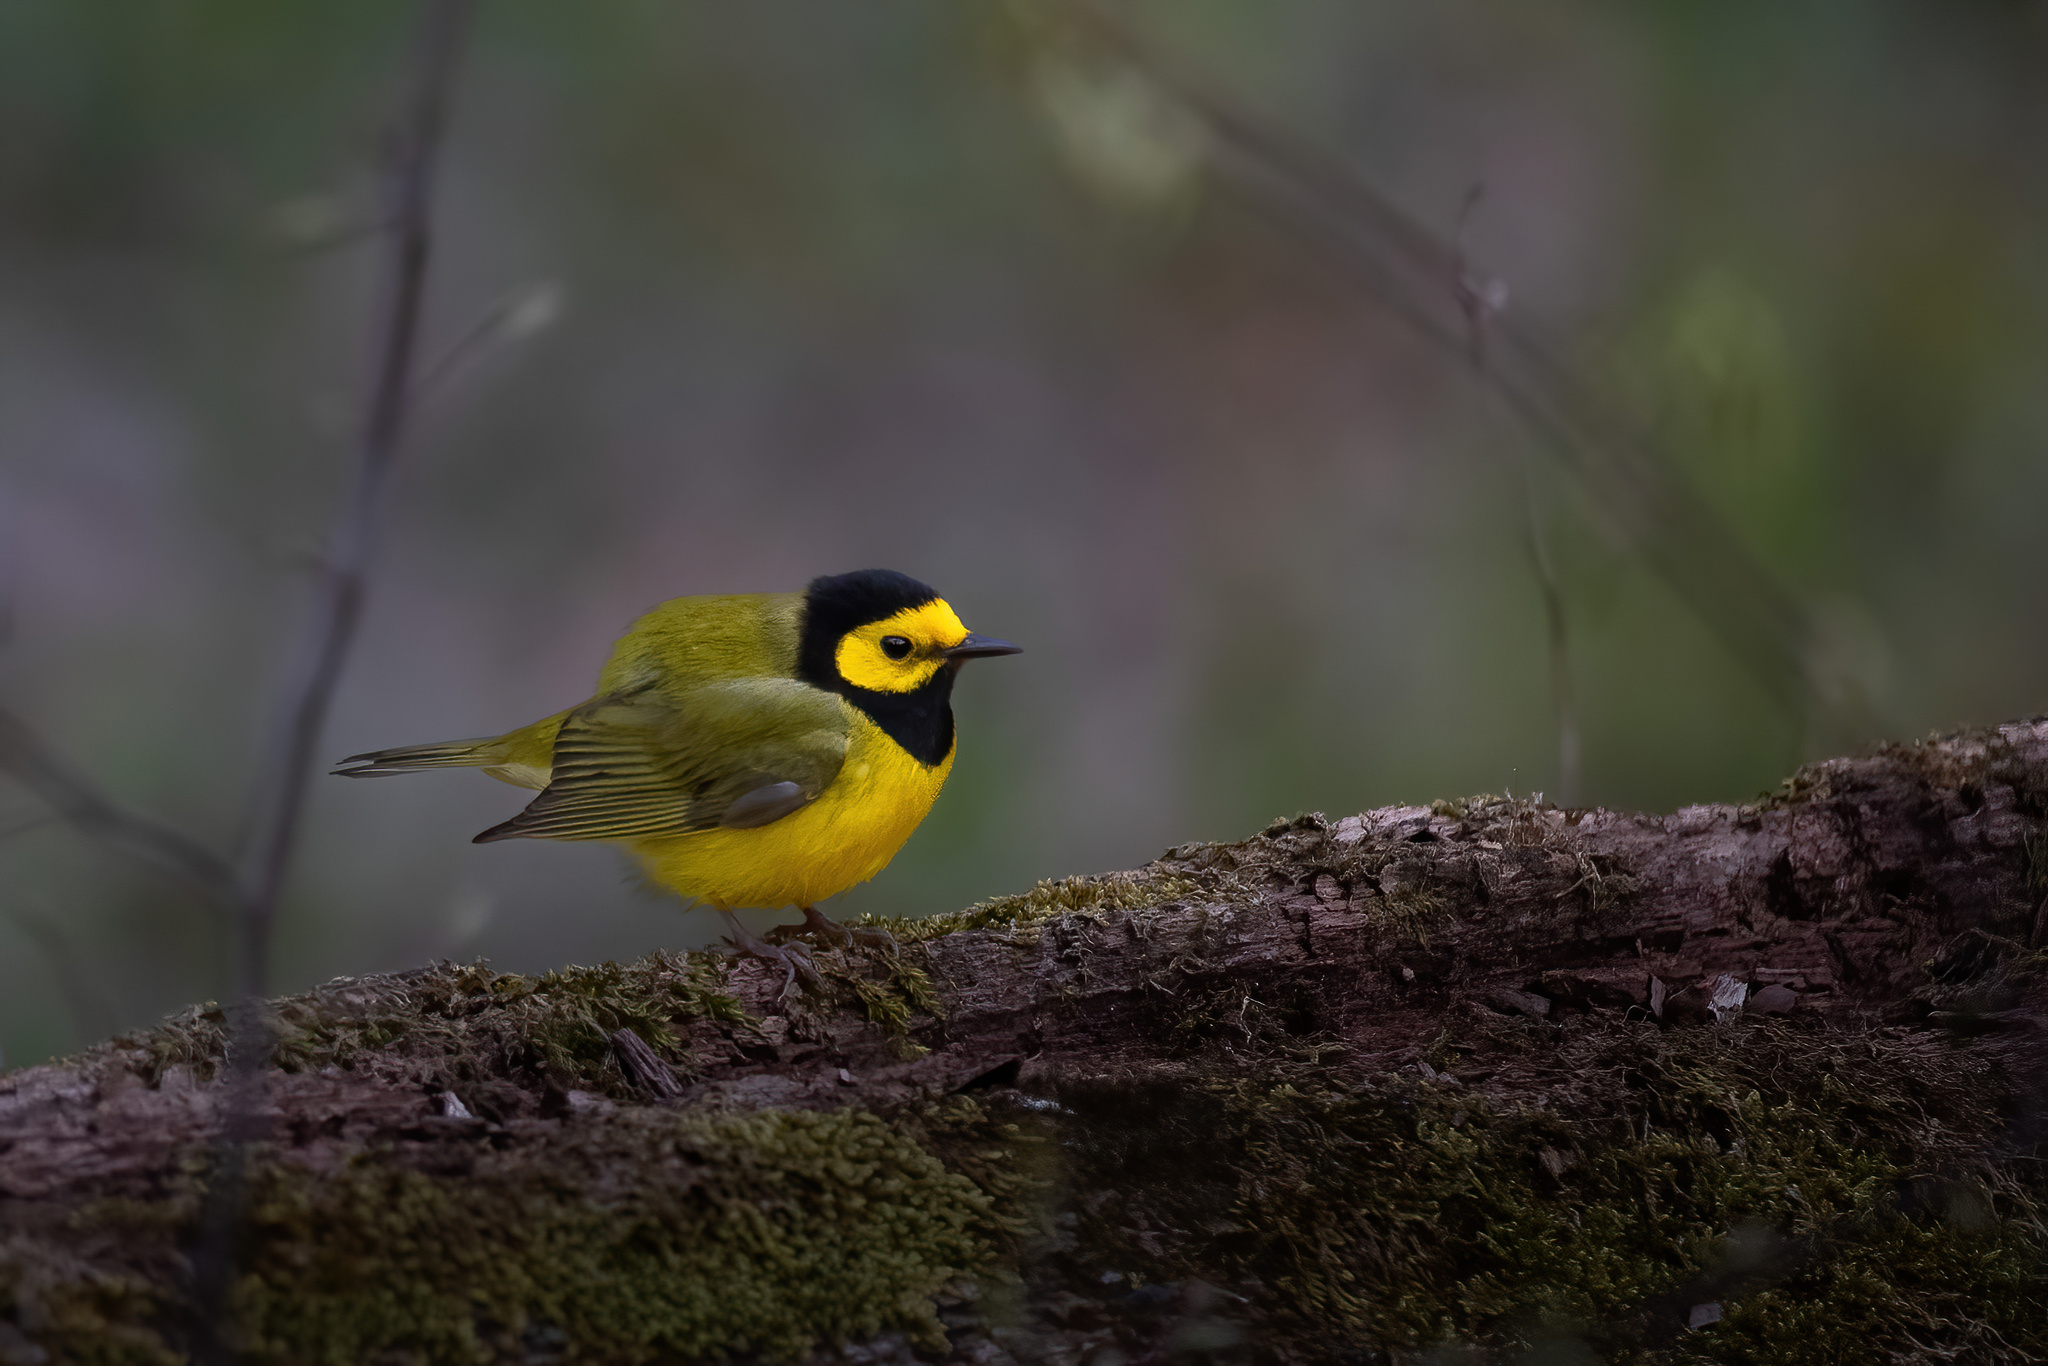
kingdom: Animalia
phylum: Chordata
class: Aves
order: Passeriformes
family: Parulidae
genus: Setophaga
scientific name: Setophaga citrina
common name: Hooded warbler
